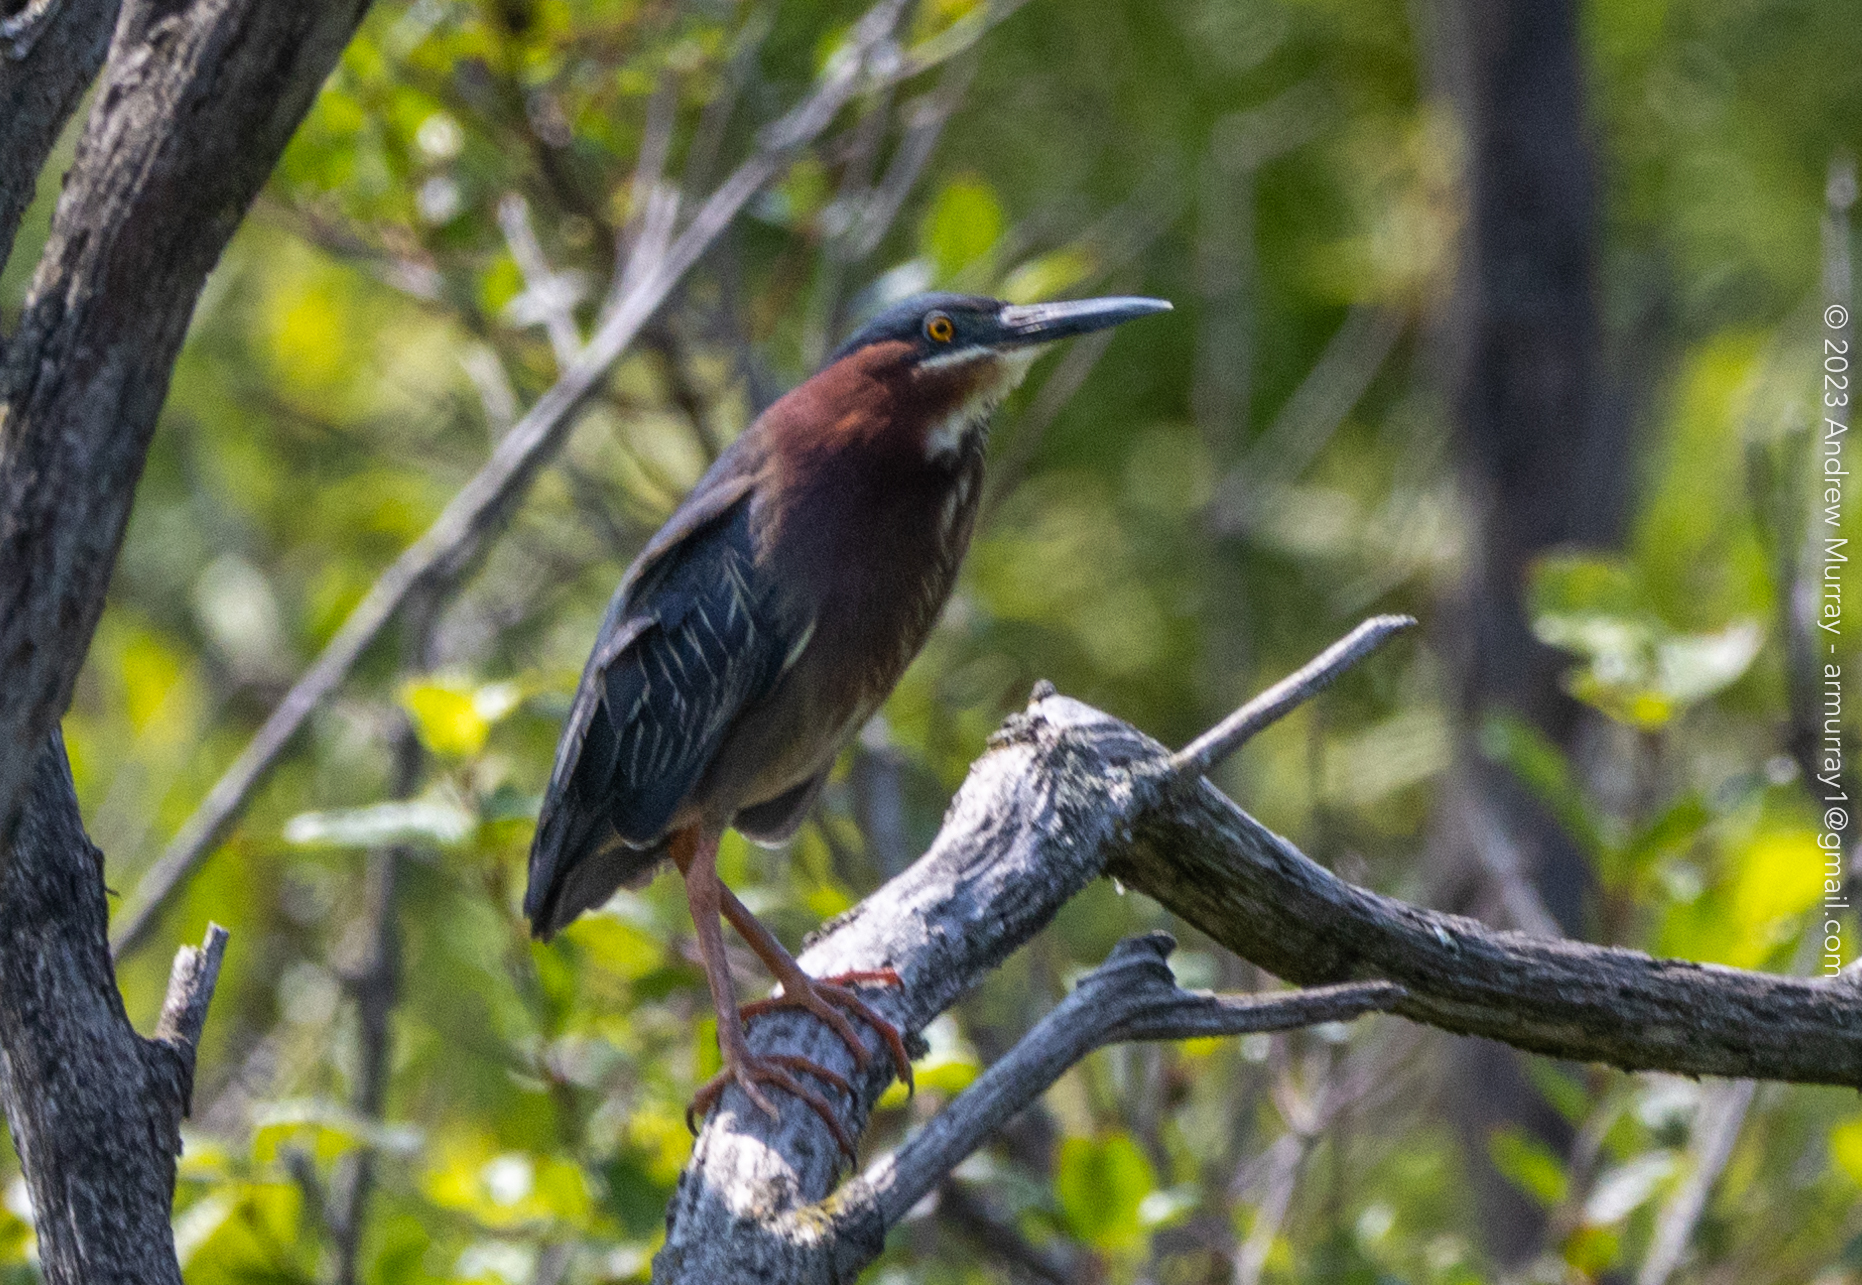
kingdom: Animalia
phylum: Chordata
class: Aves
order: Pelecaniformes
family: Ardeidae
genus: Butorides
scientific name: Butorides virescens
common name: Green heron
